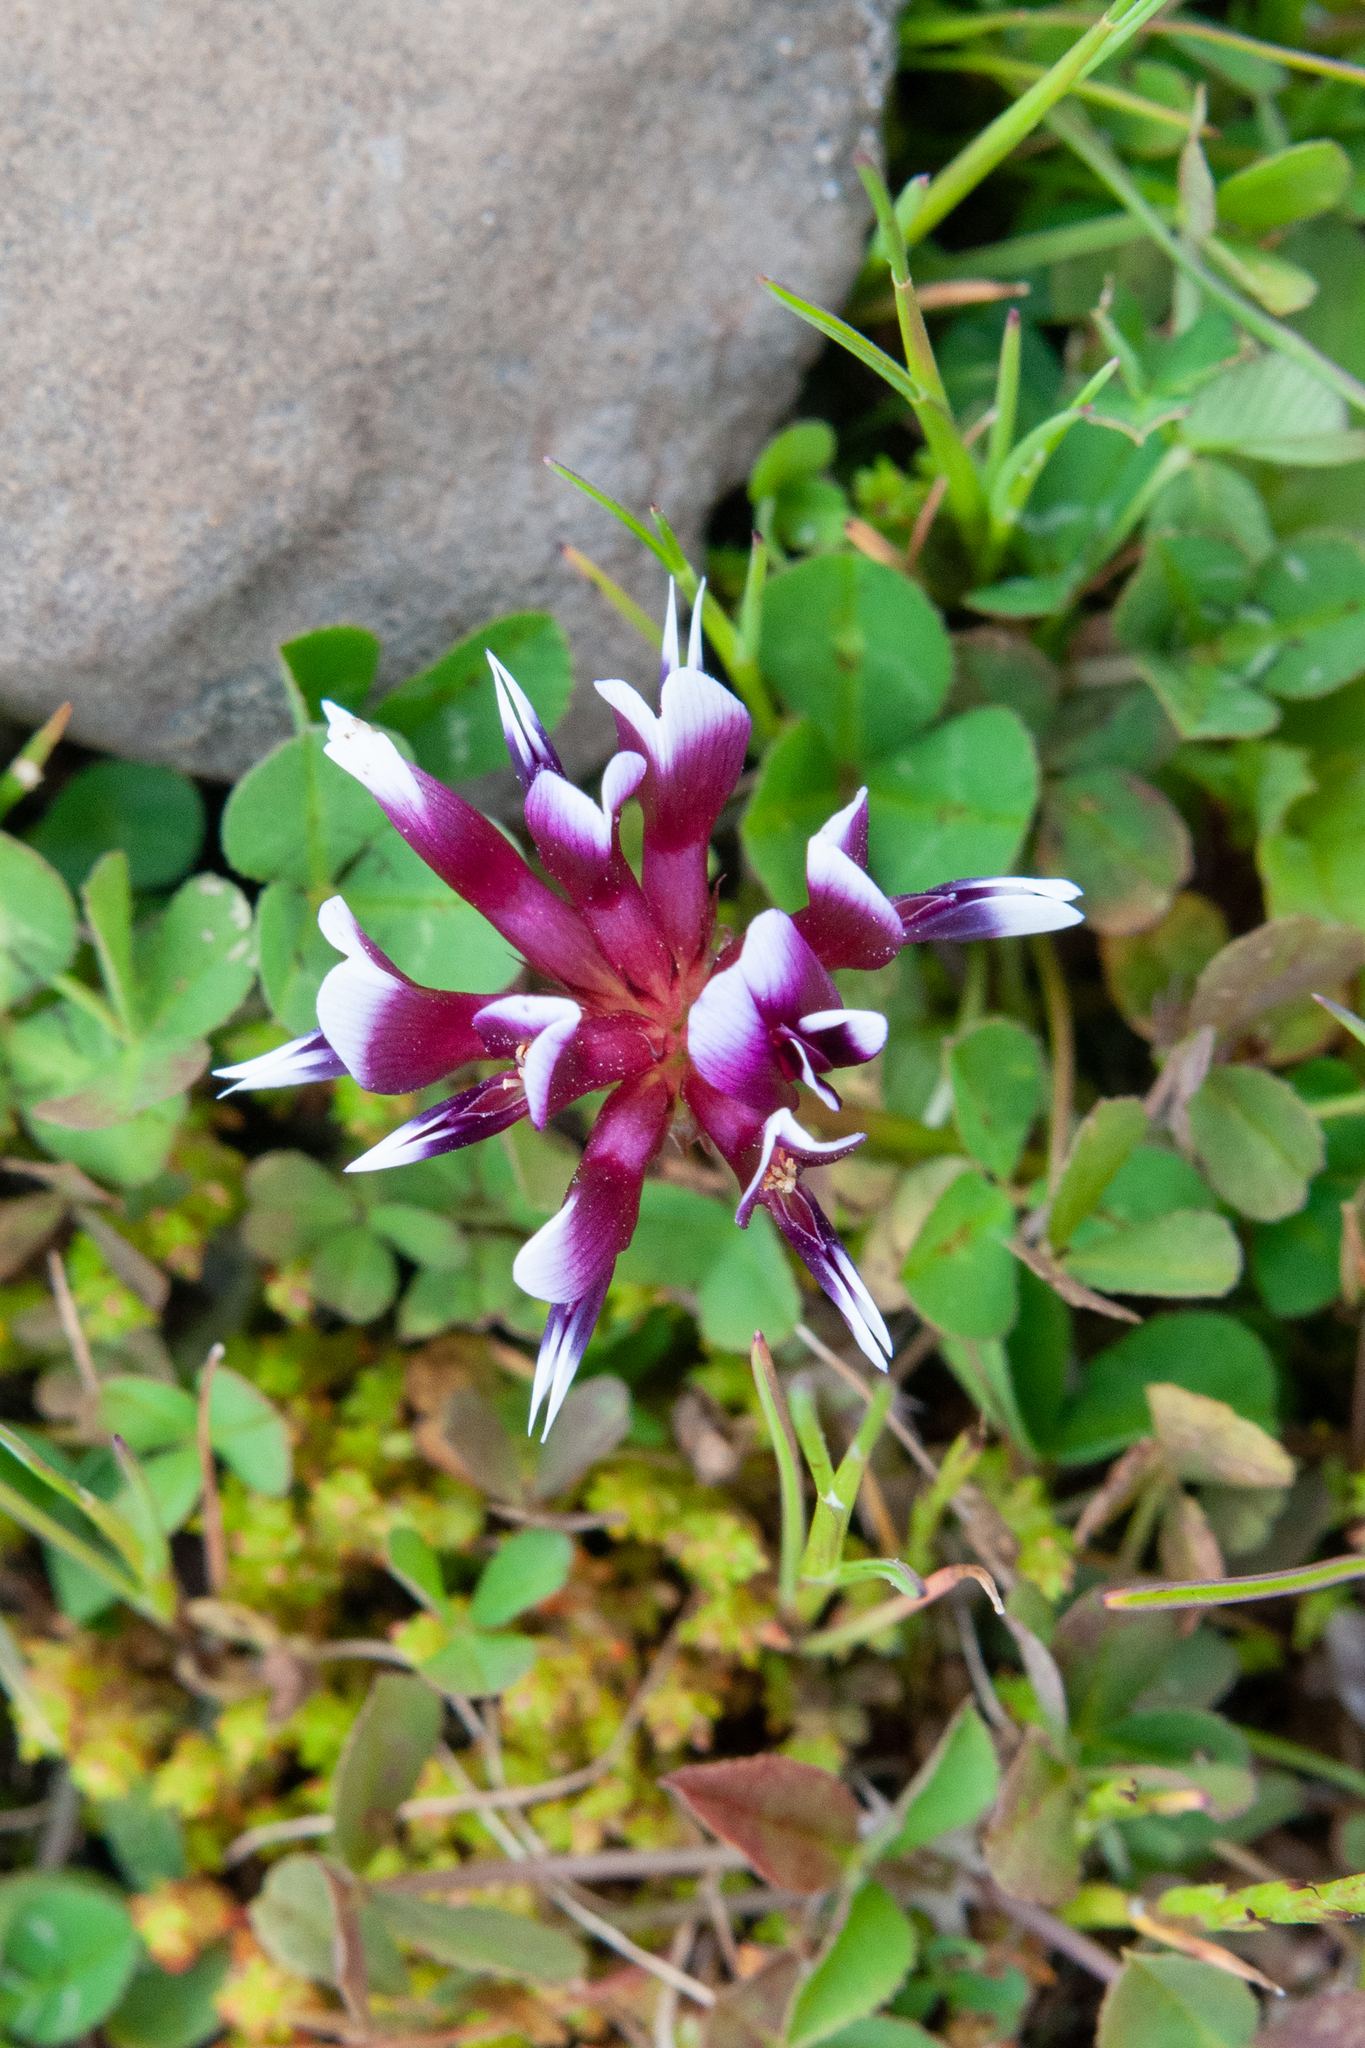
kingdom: Plantae
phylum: Tracheophyta
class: Magnoliopsida
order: Fabales
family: Fabaceae
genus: Trifolium
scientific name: Trifolium variegatum
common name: Whitetip clover
